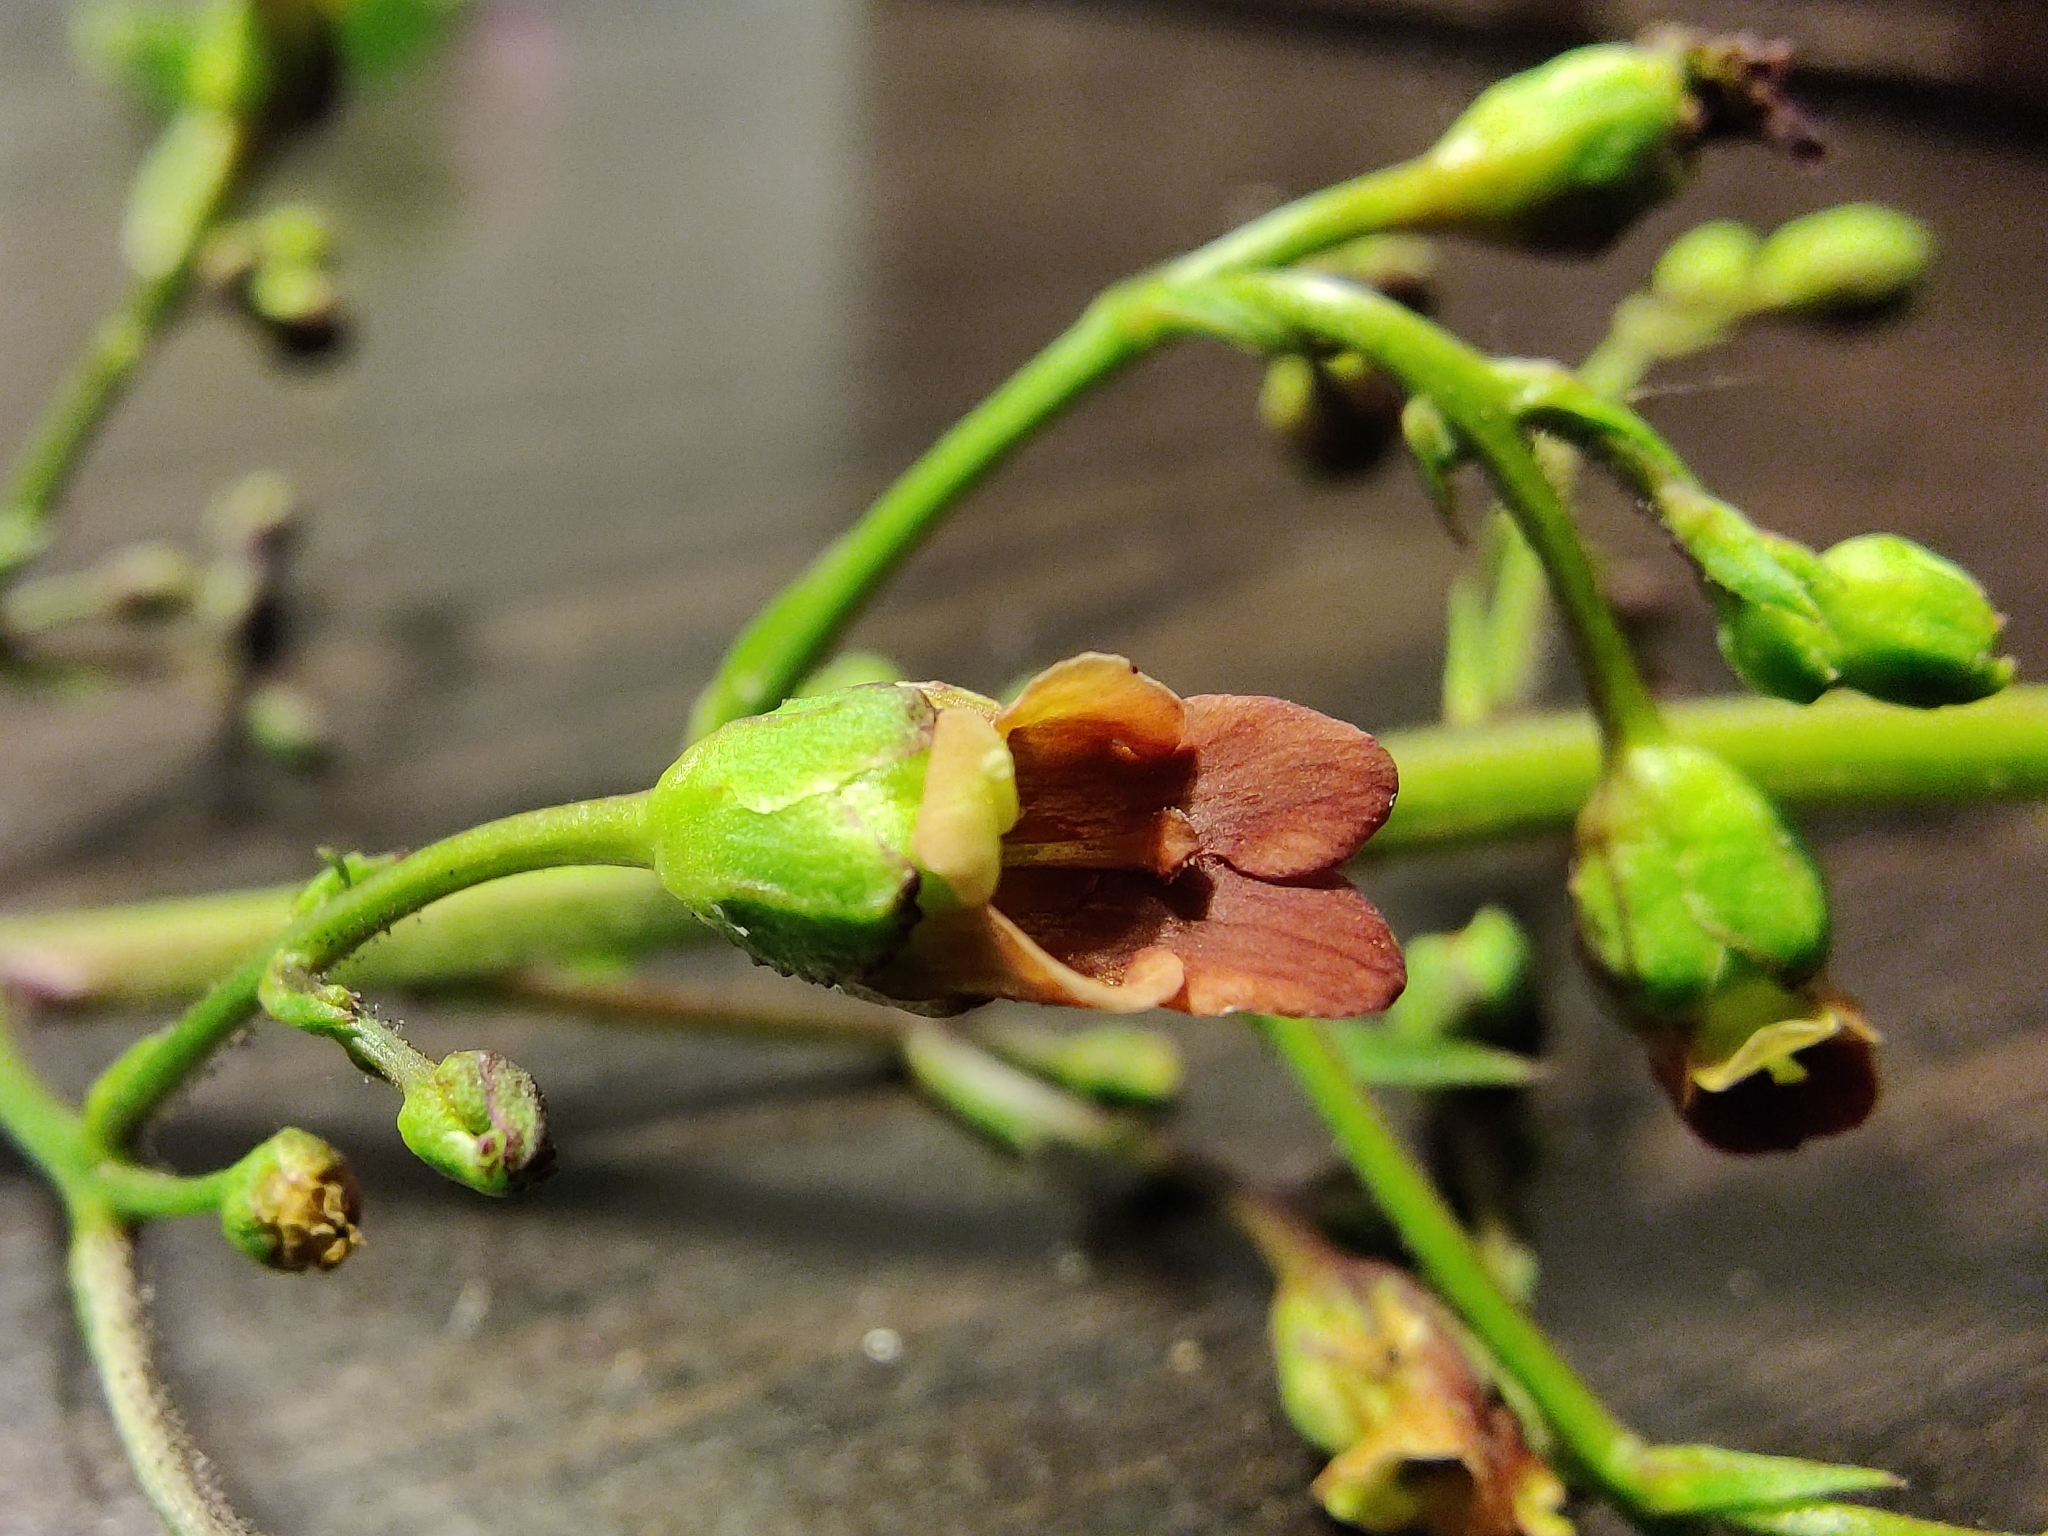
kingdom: Plantae
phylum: Tracheophyta
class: Magnoliopsida
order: Lamiales
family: Scrophulariaceae
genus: Scrophularia
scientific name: Scrophularia californica
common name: California figwort
